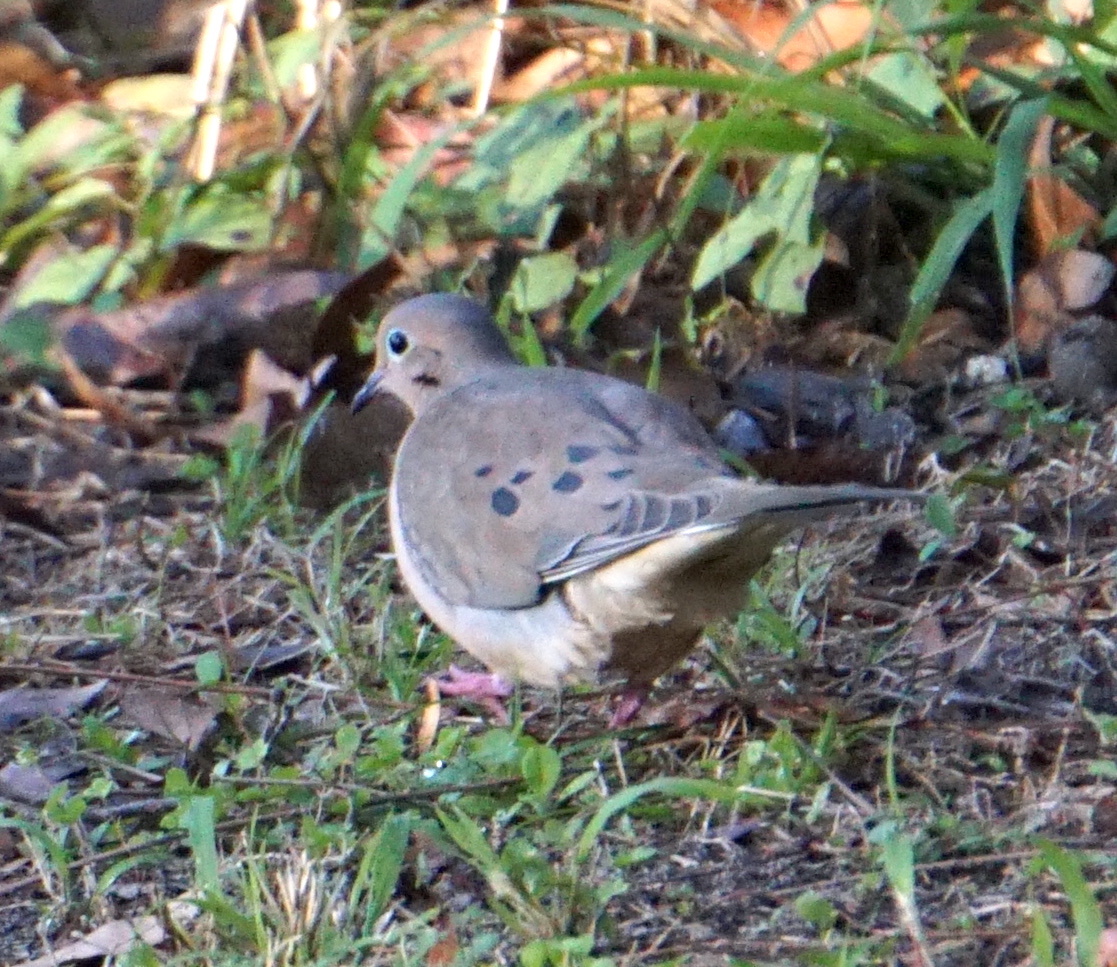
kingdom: Animalia
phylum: Chordata
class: Aves
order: Columbiformes
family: Columbidae
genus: Zenaida
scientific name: Zenaida macroura
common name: Mourning dove
